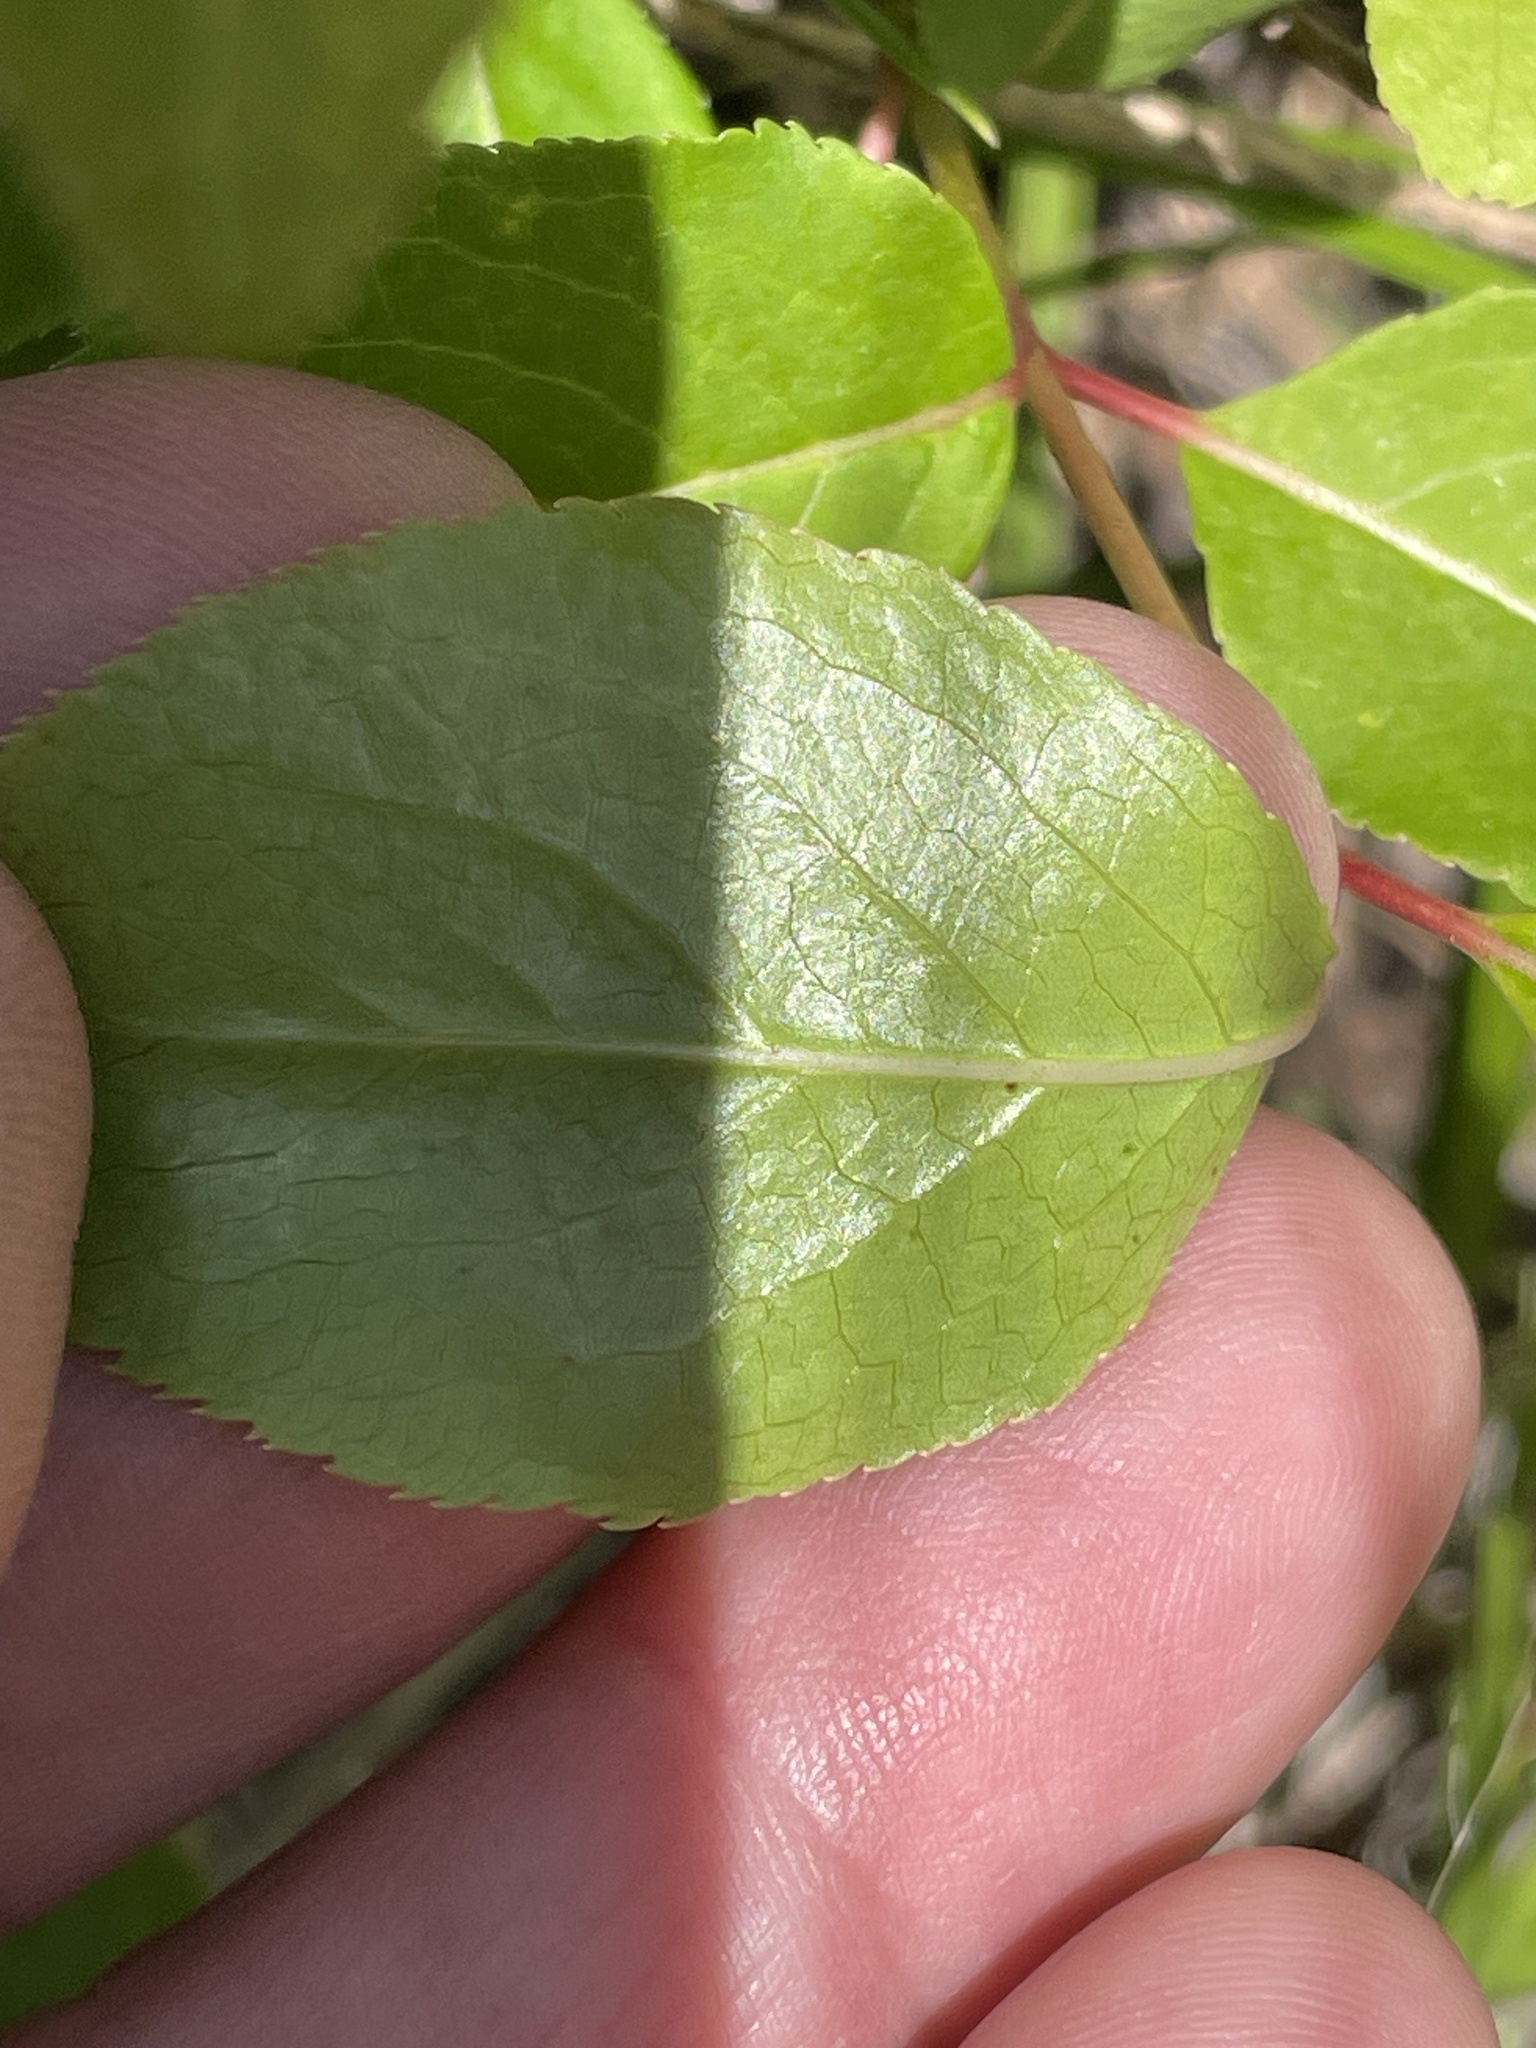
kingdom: Plantae
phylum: Tracheophyta
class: Magnoliopsida
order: Dipsacales
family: Viburnaceae
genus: Viburnum
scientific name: Viburnum prunifolium
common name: Black haw
